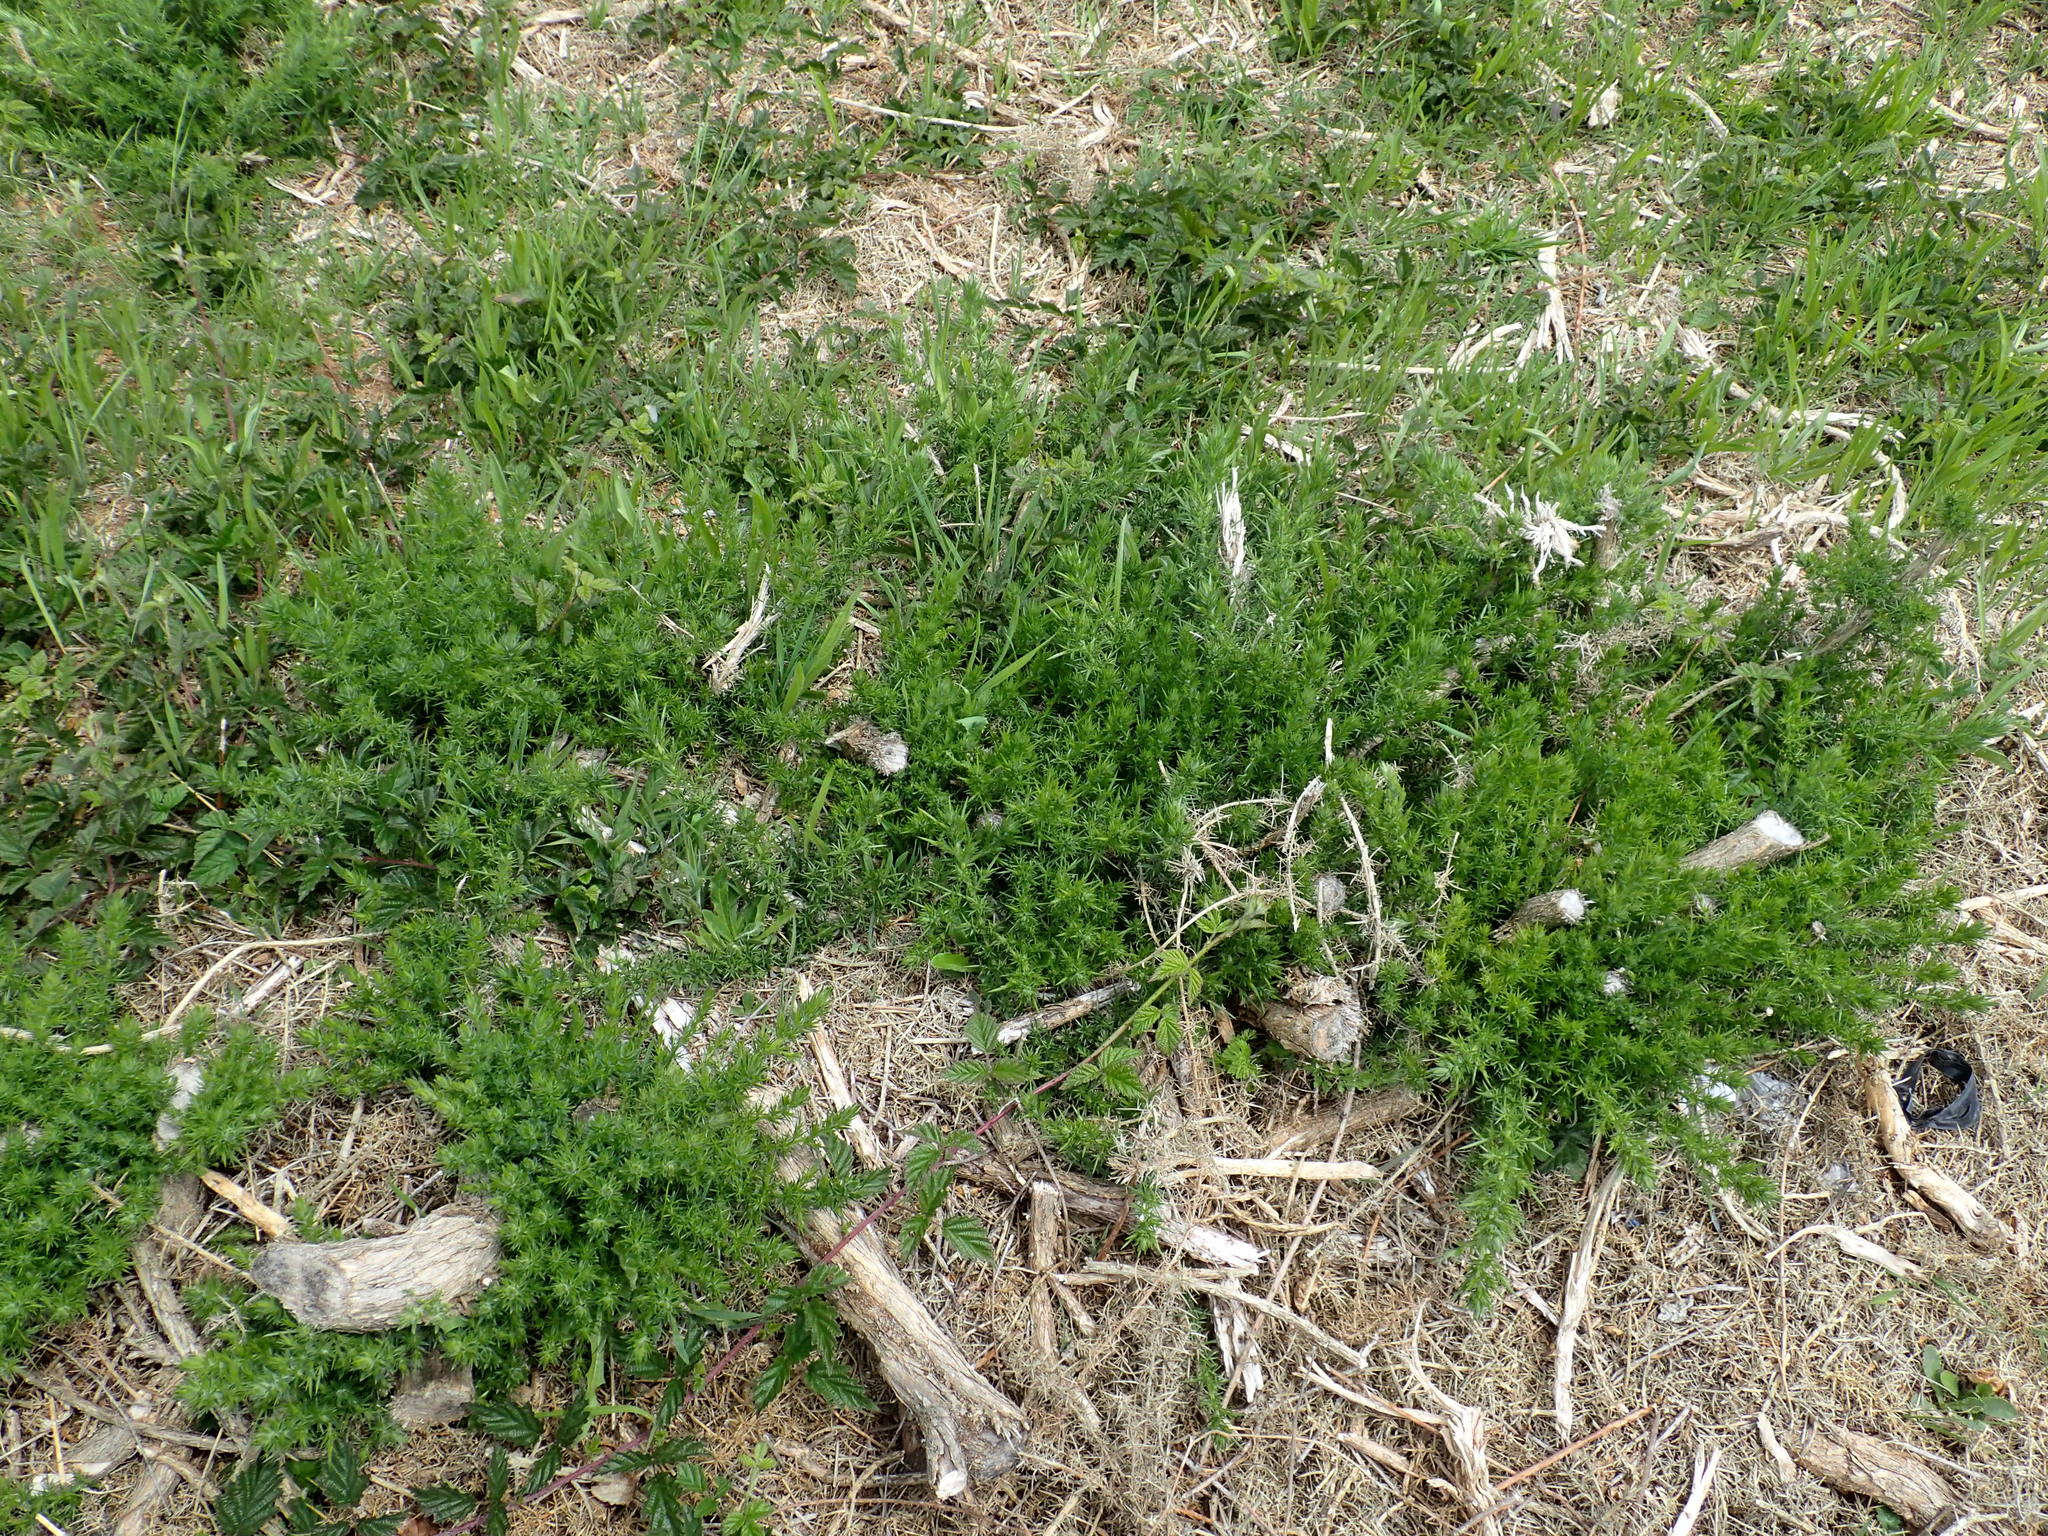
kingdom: Plantae
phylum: Tracheophyta
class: Magnoliopsida
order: Fabales
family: Fabaceae
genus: Ulex
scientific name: Ulex europaeus
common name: Common gorse
